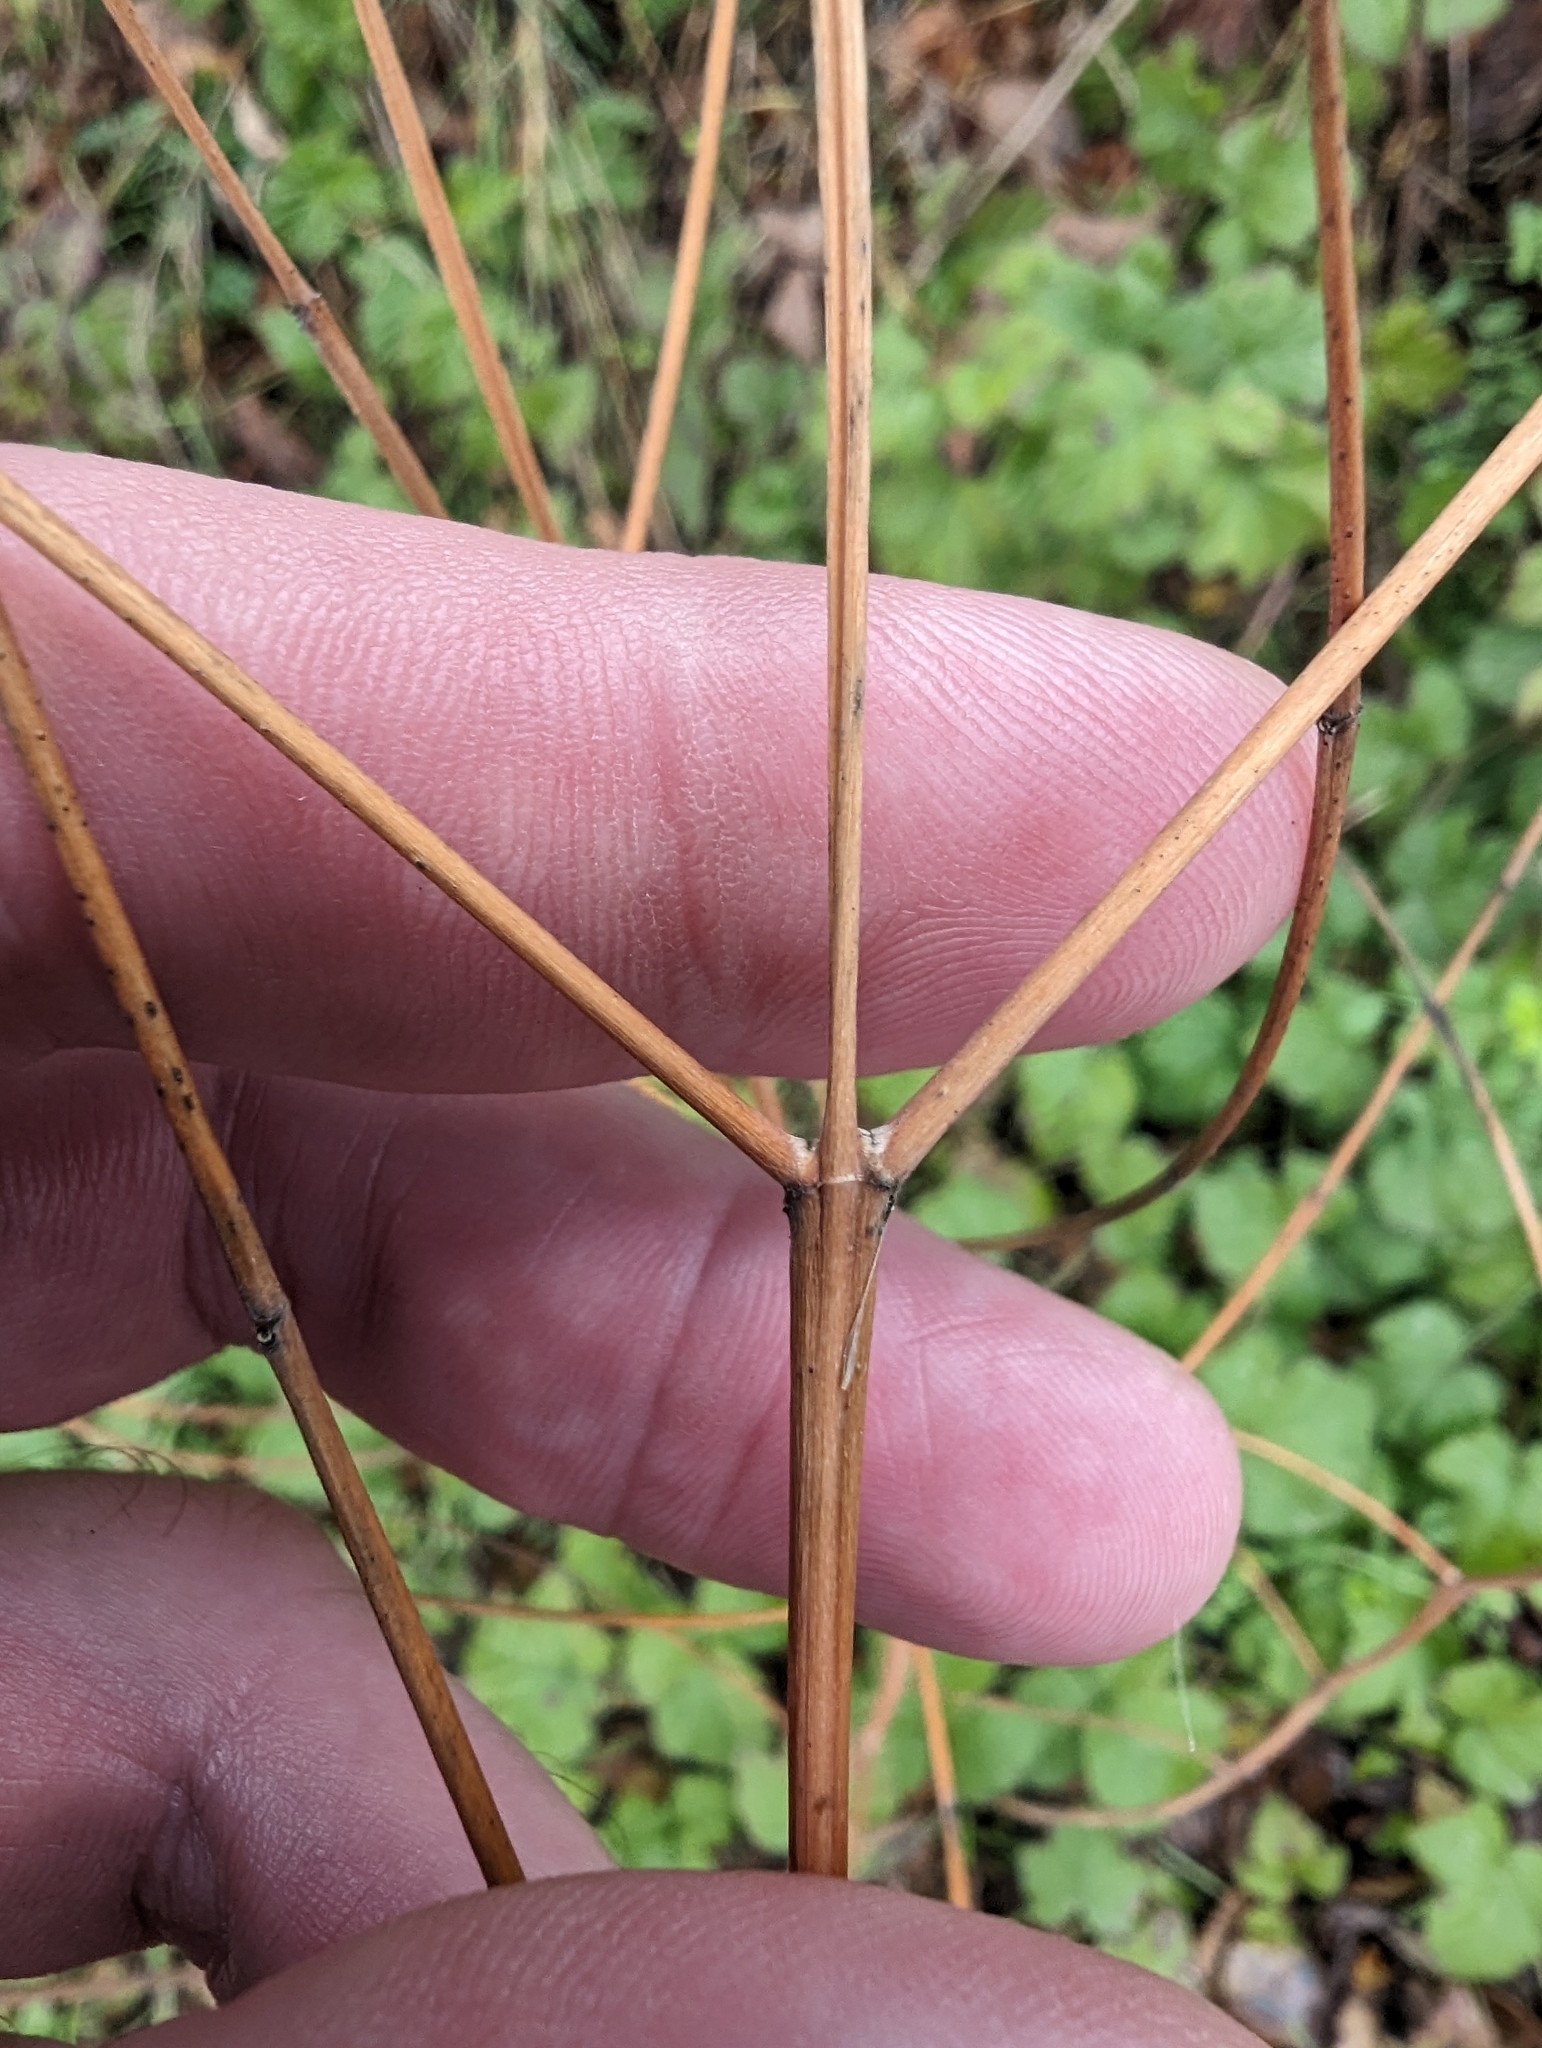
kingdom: Plantae
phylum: Tracheophyta
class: Magnoliopsida
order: Gentianales
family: Apocynaceae
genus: Apocynum
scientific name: Apocynum cannabinum
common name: Hemp dogbane
